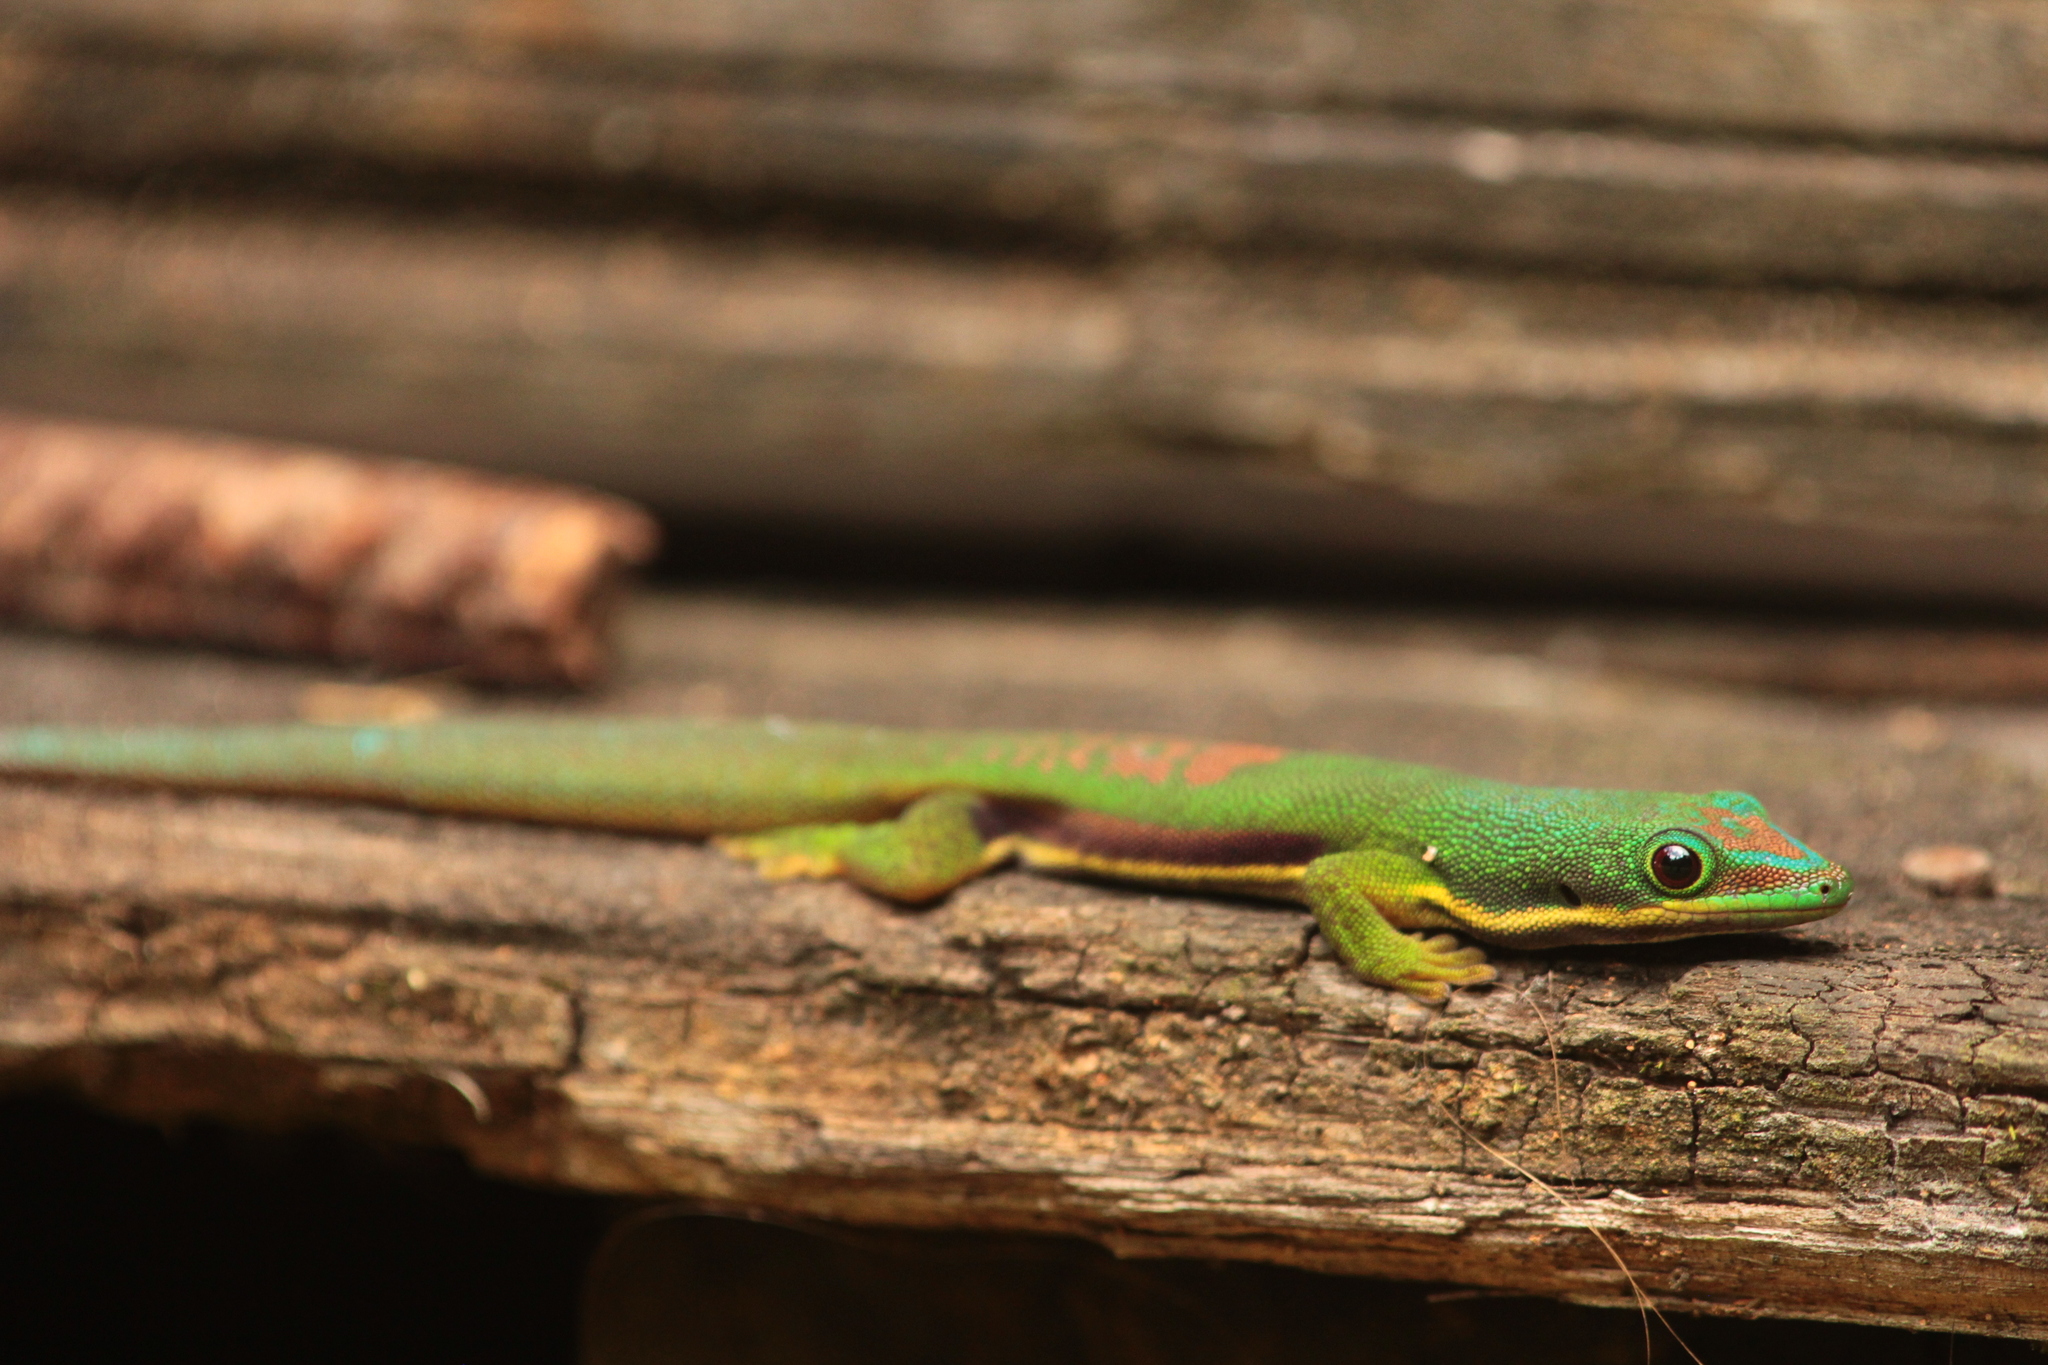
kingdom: Animalia
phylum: Chordata
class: Squamata
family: Gekkonidae
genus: Phelsuma
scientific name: Phelsuma lineata
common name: Lined day gecko
